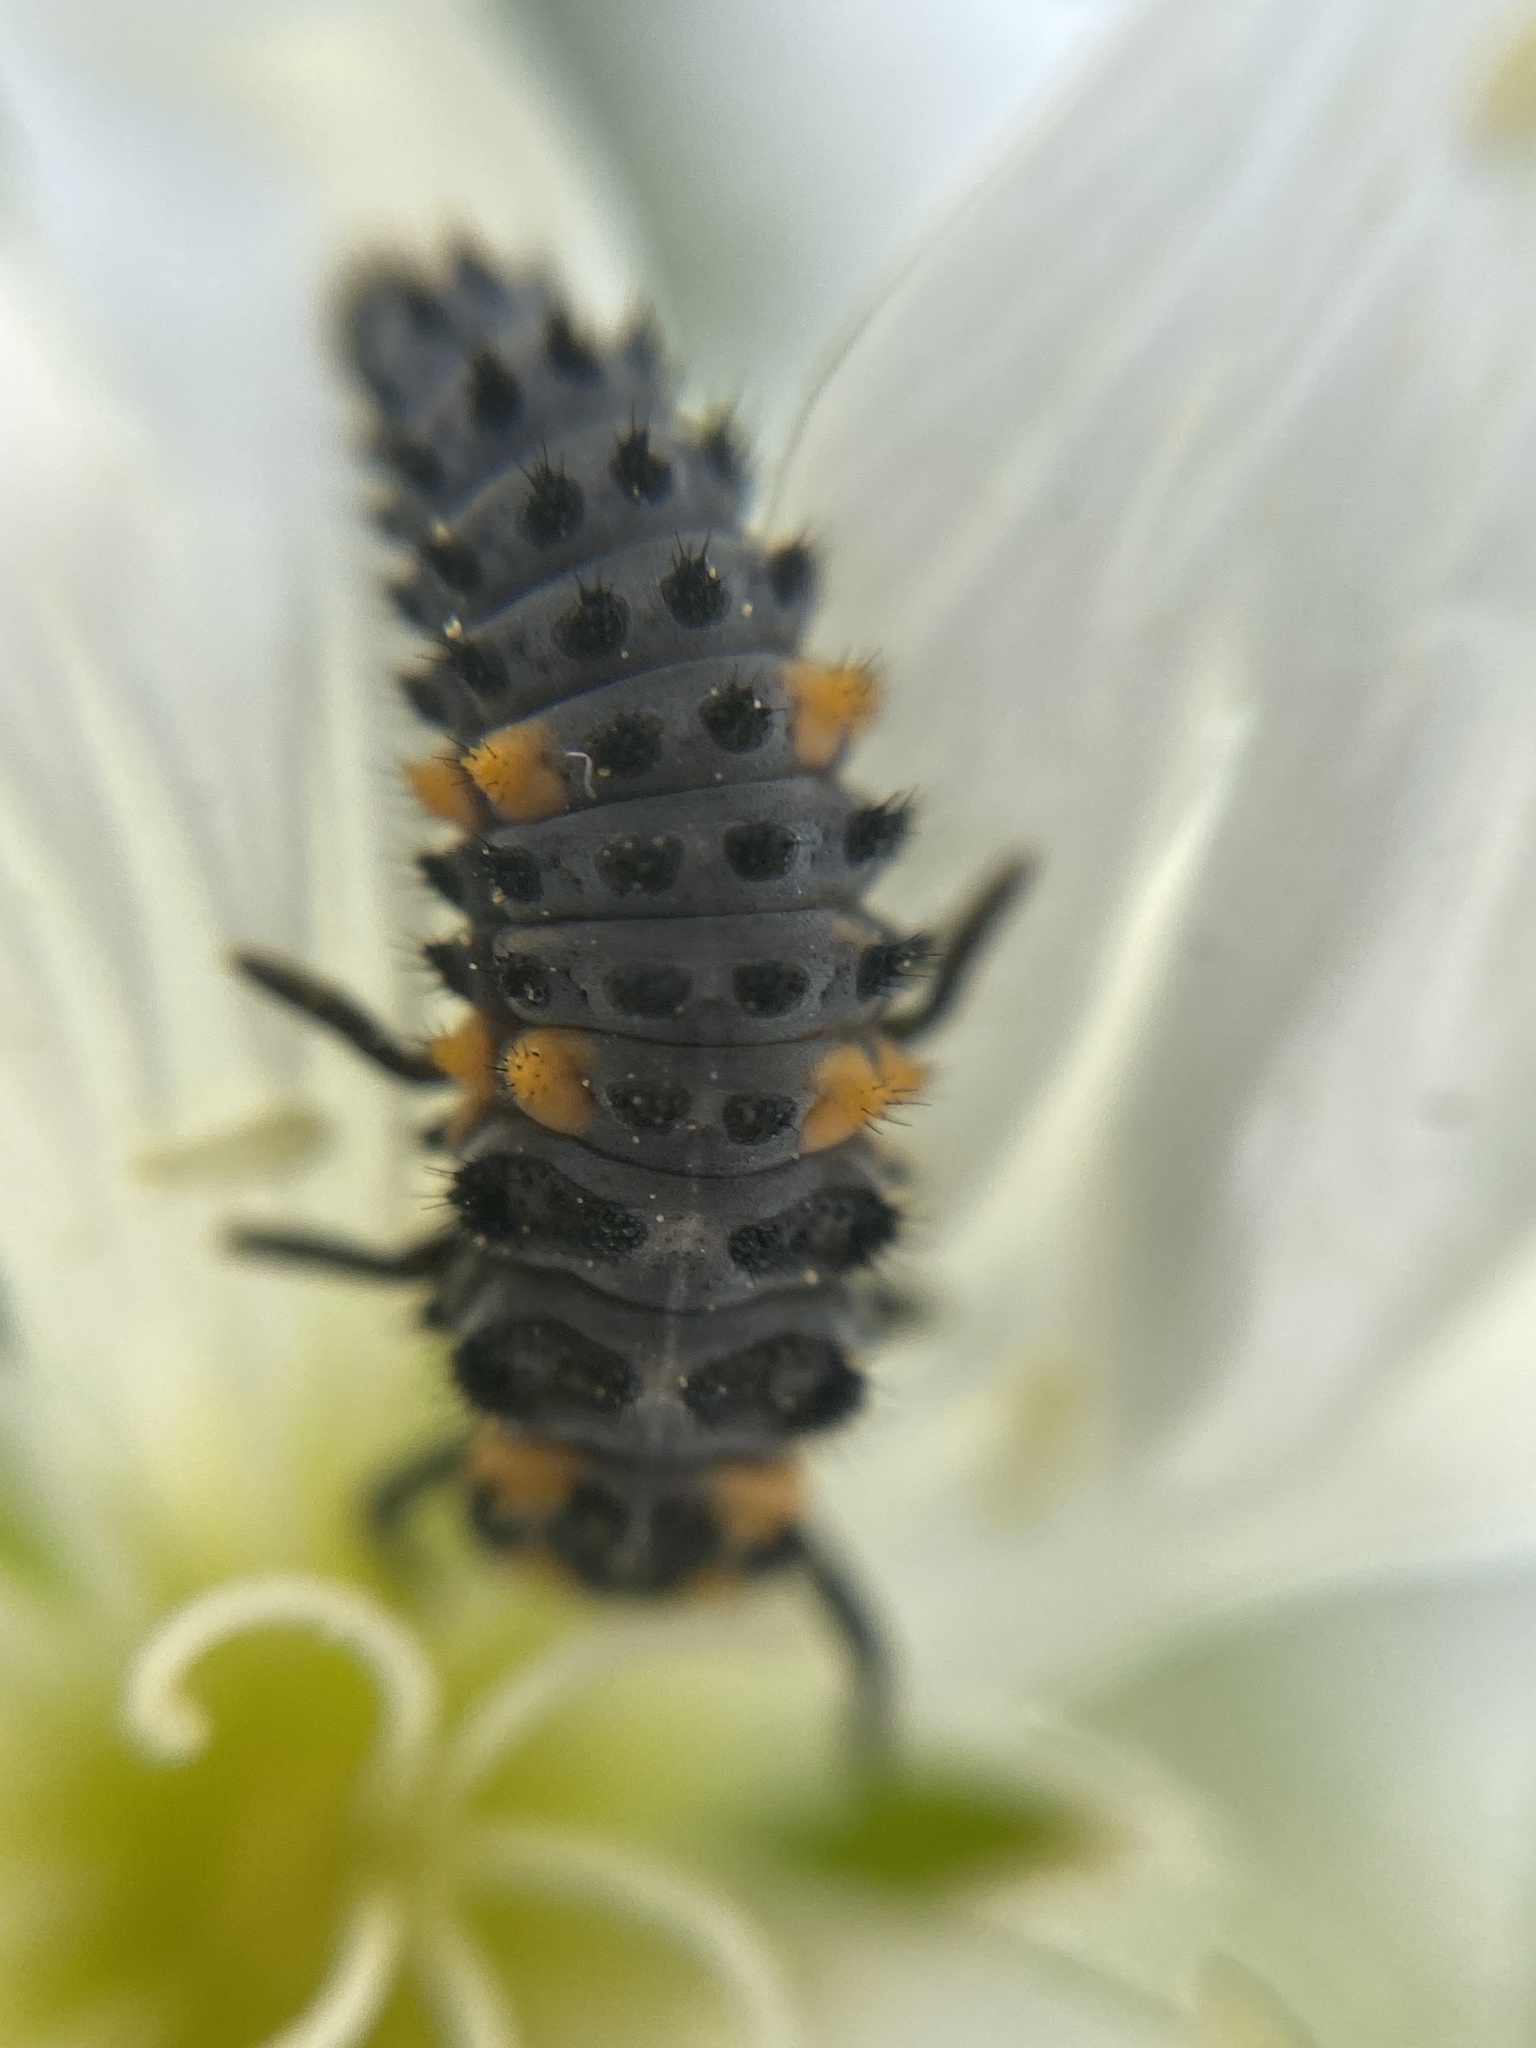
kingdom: Animalia
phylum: Arthropoda
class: Insecta
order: Coleoptera
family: Coccinellidae
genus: Coccinella
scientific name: Coccinella septempunctata
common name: Sevenspotted lady beetle
